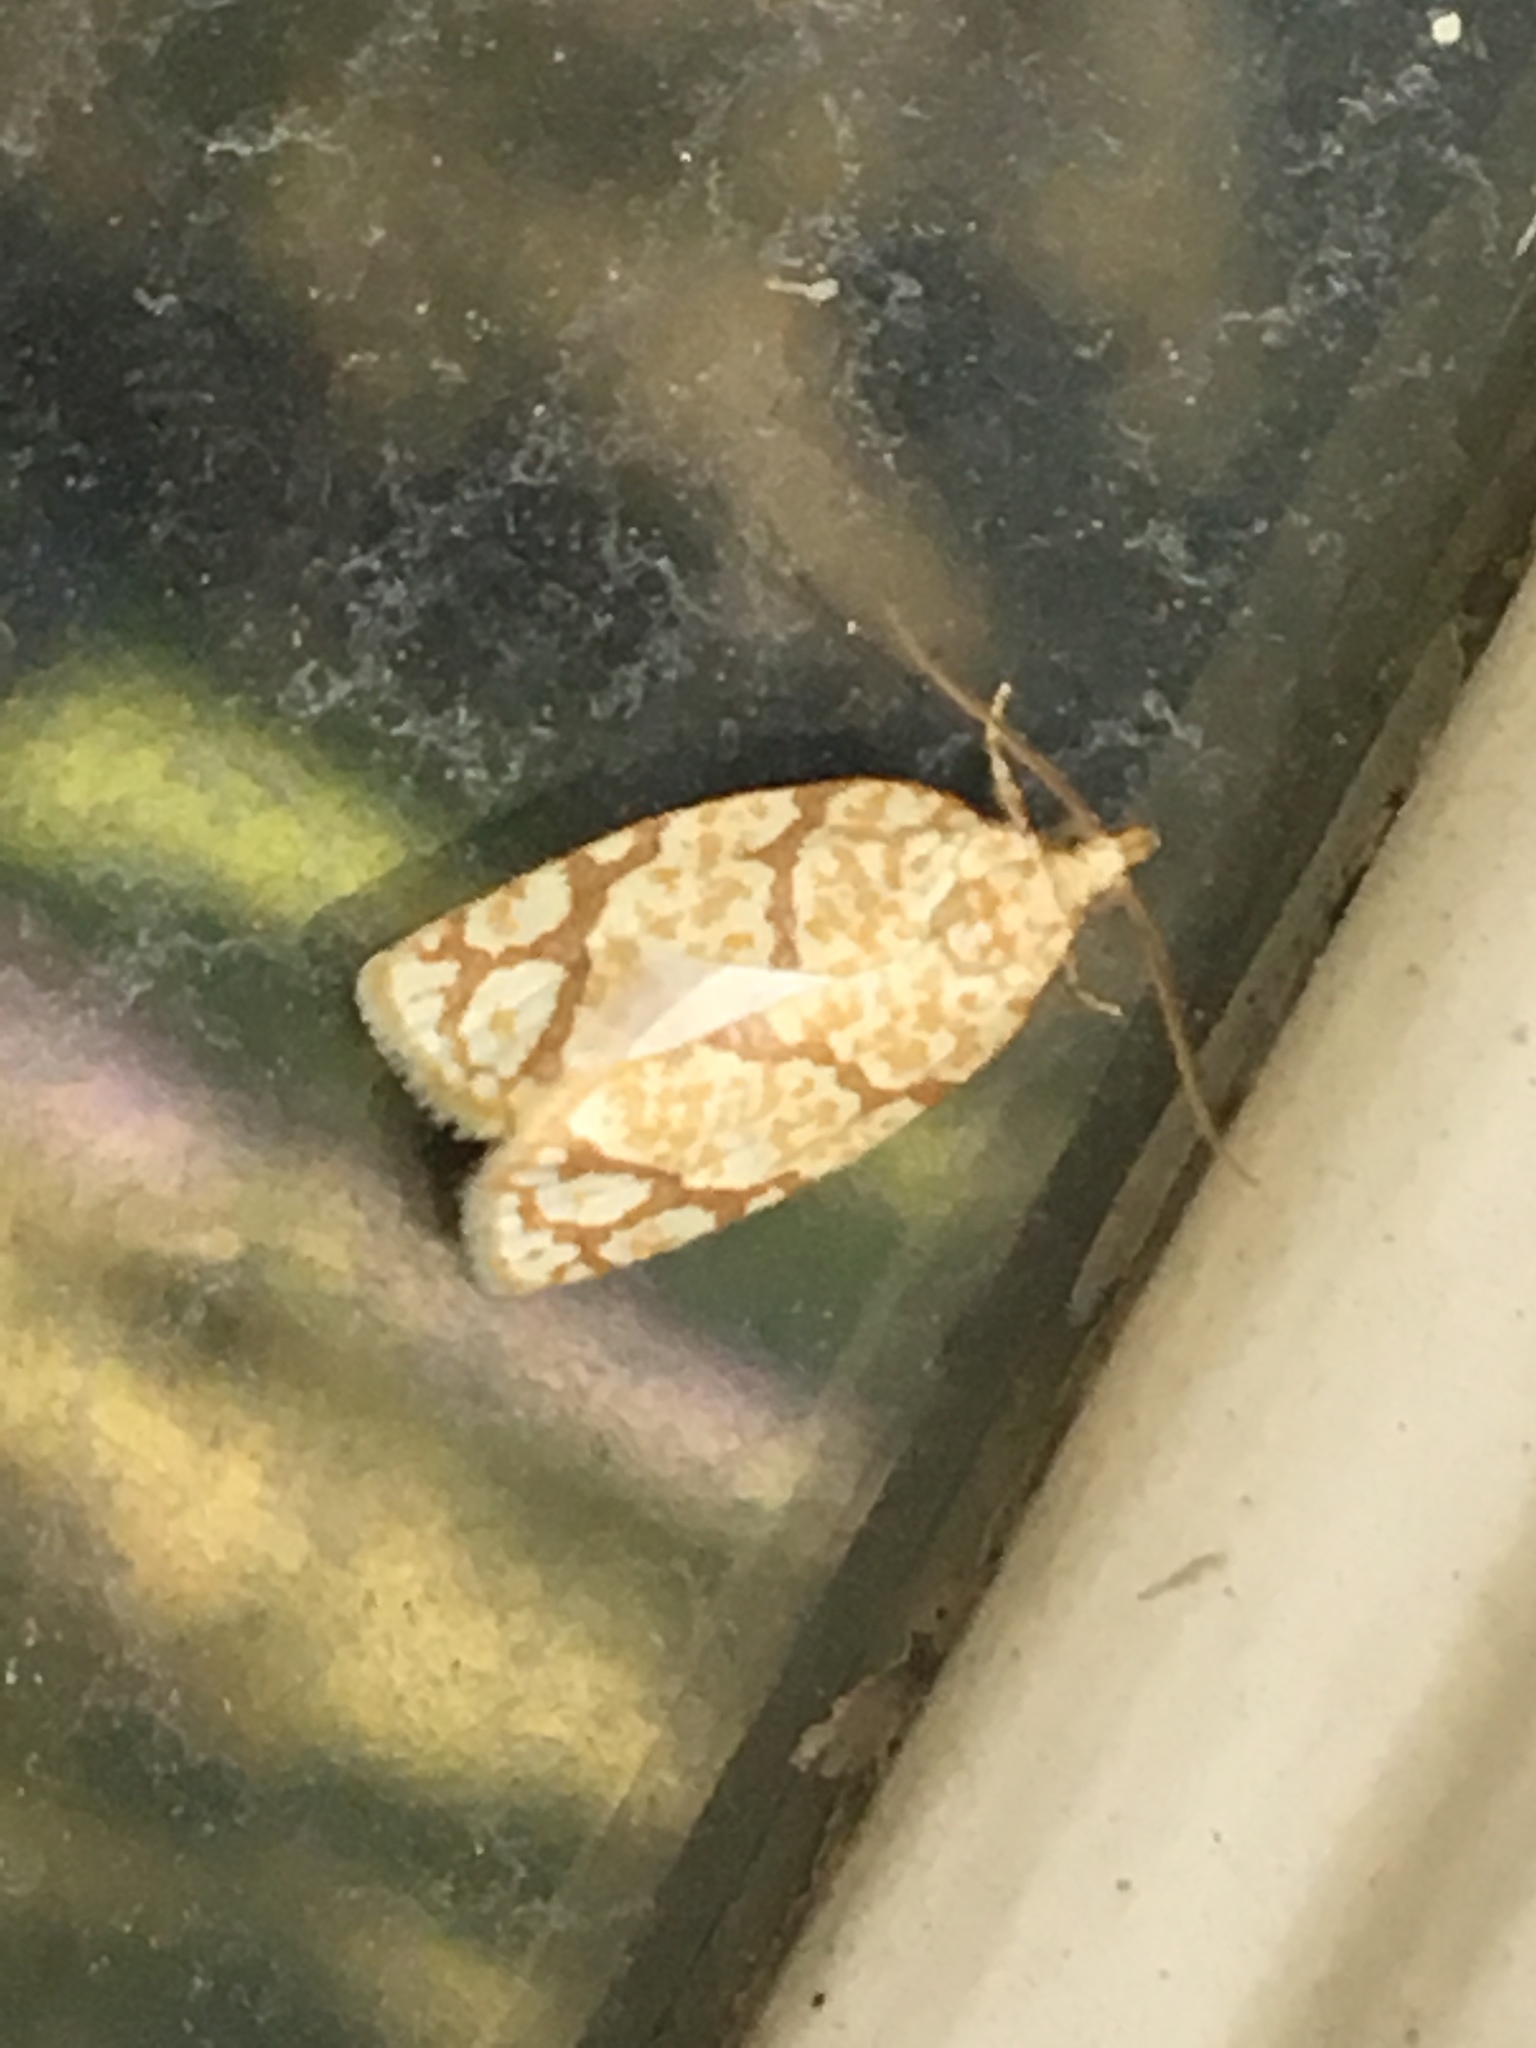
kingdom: Animalia
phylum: Arthropoda
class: Insecta
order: Lepidoptera
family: Tortricidae
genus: Argyrotaenia
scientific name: Argyrotaenia quercifoliana
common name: Yellow-winged oak leafroller moth
